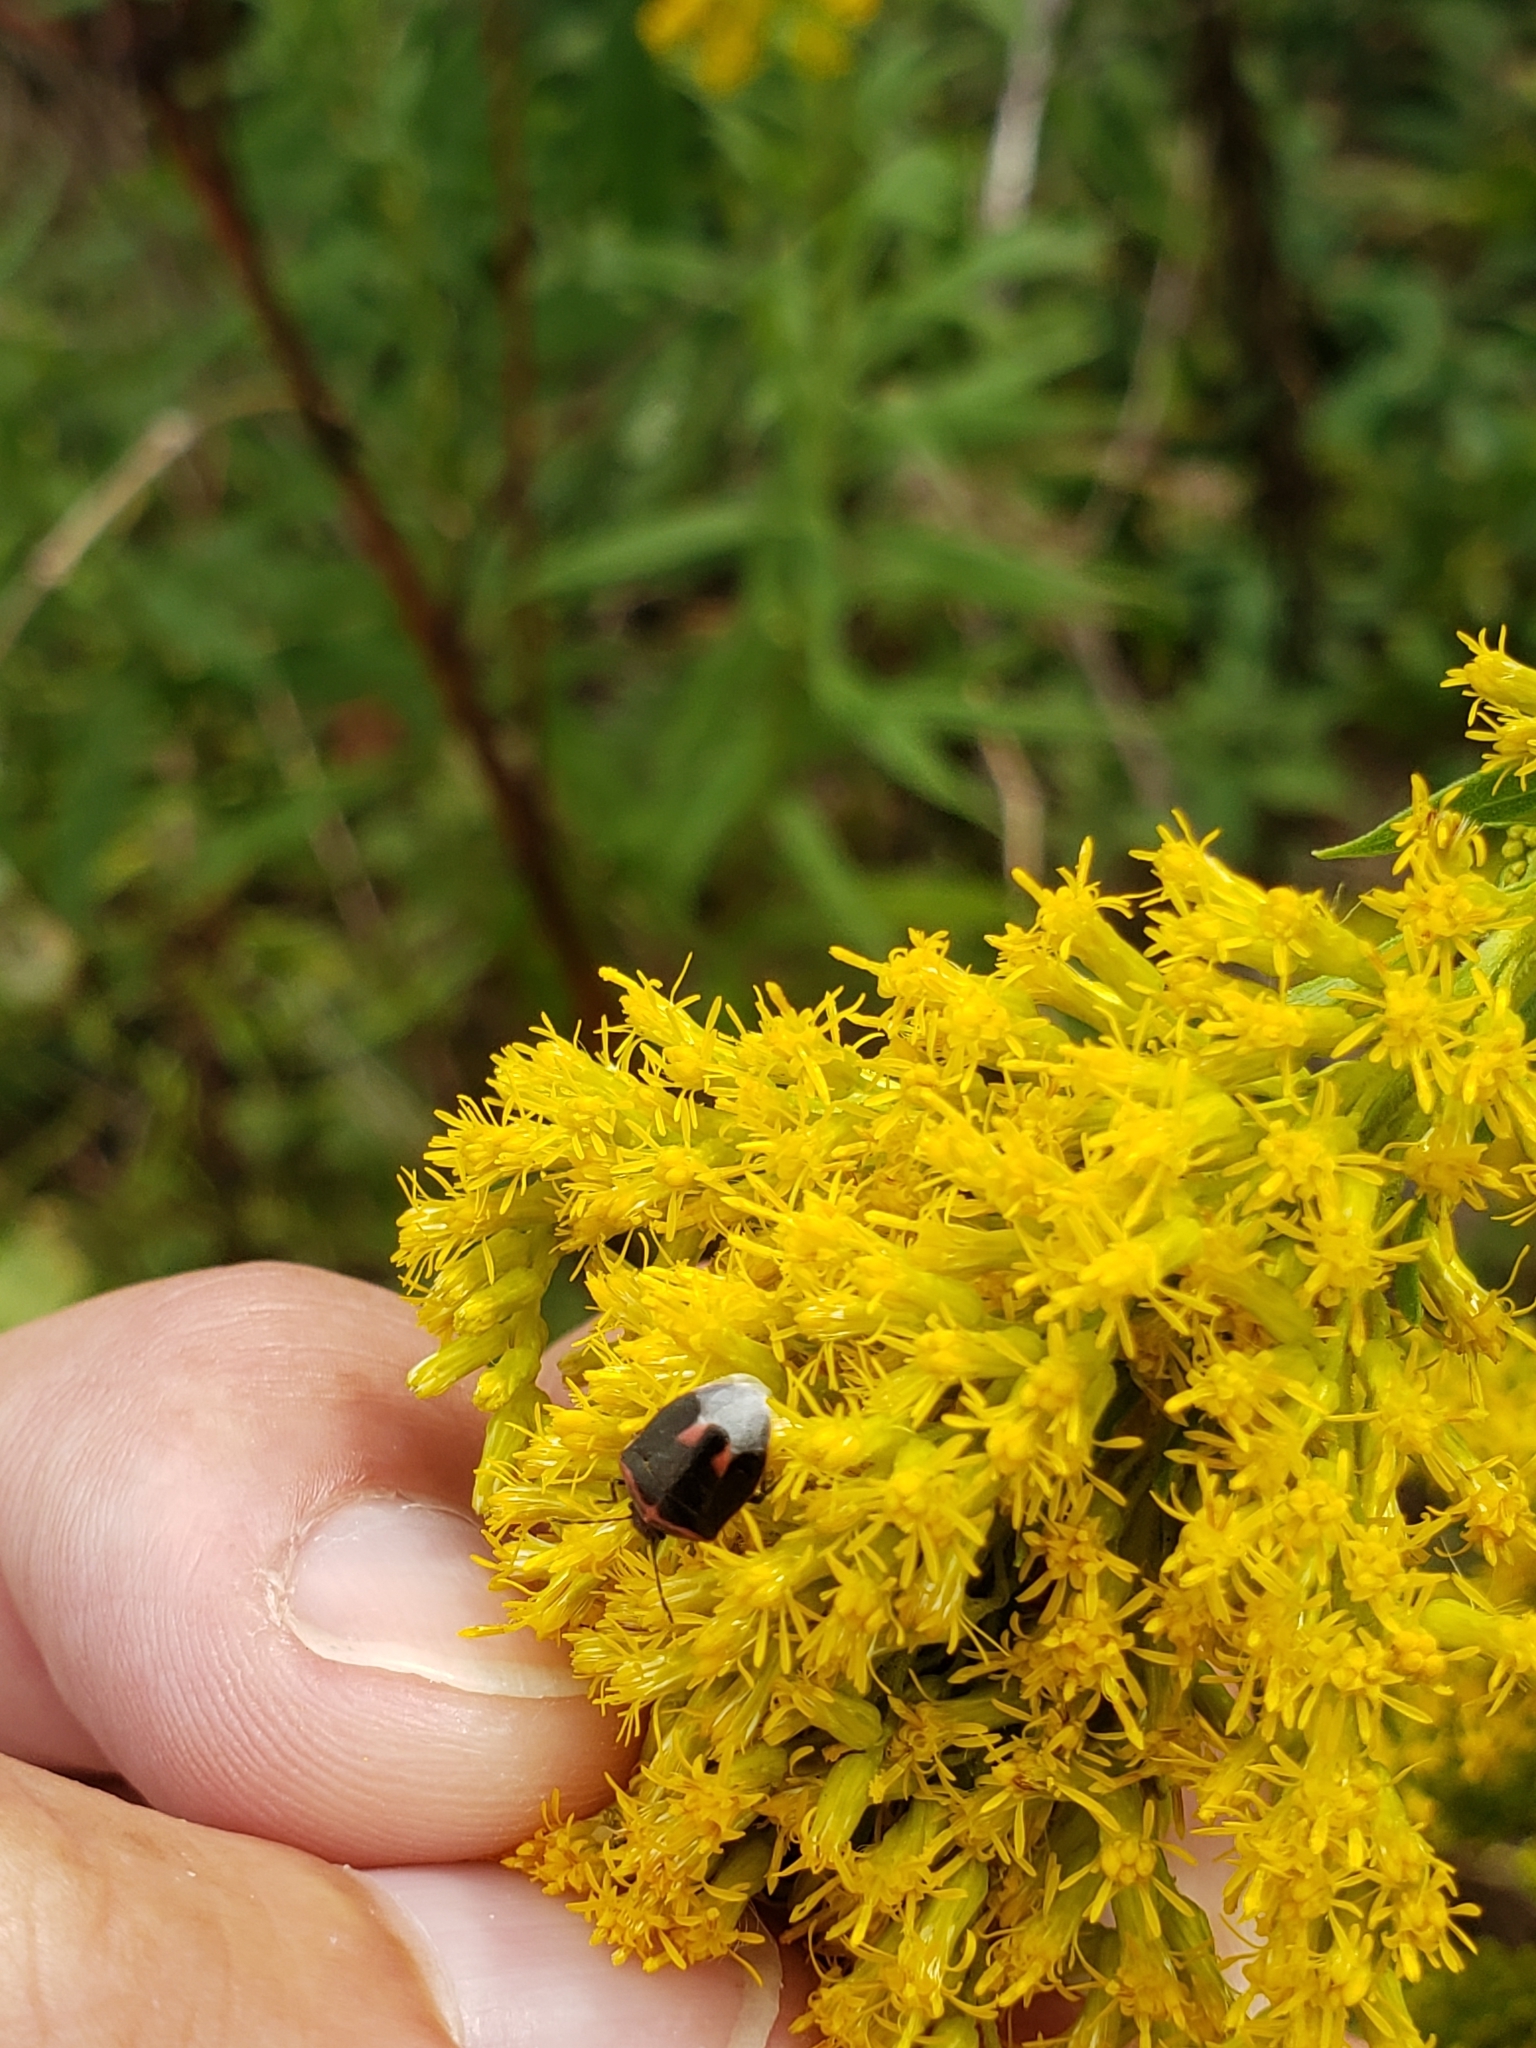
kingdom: Animalia
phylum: Arthropoda
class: Insecta
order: Hemiptera
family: Pentatomidae
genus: Cosmopepla
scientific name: Cosmopepla lintneriana
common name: Twice-stabbed stink bug
